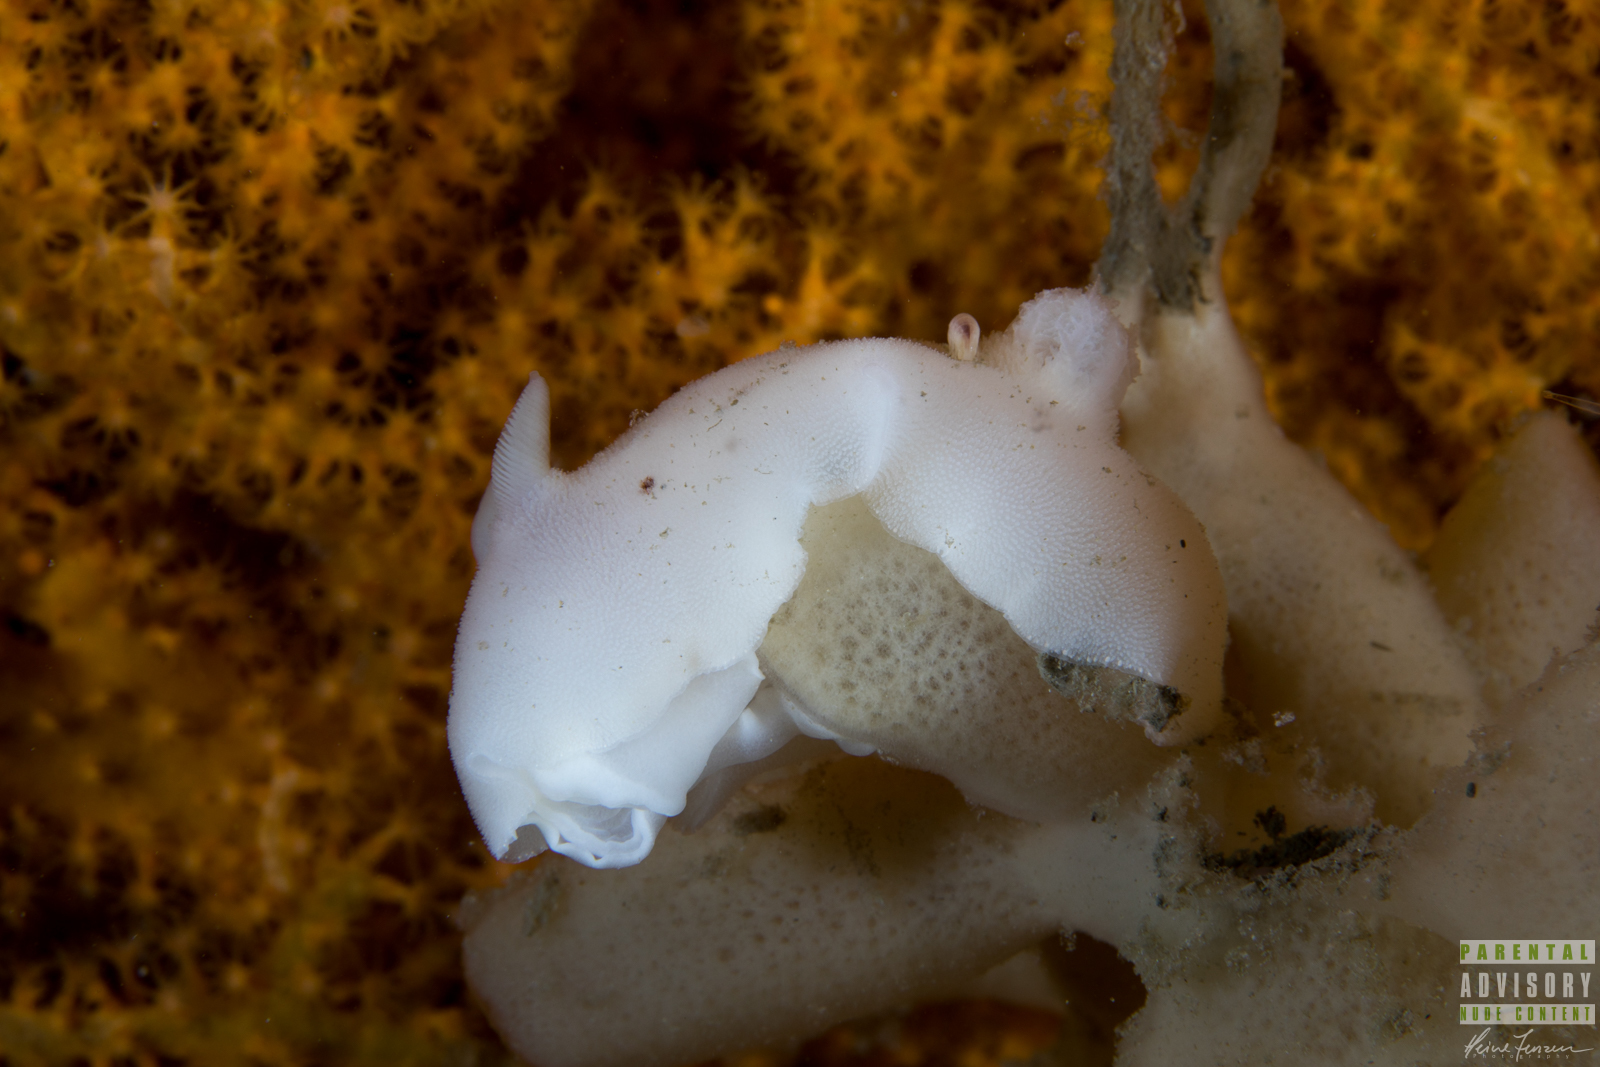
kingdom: Animalia
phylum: Mollusca
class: Gastropoda
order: Nudibranchia
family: Discodorididae
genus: Jorunna
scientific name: Jorunna tomentosa
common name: Grey sea slug
